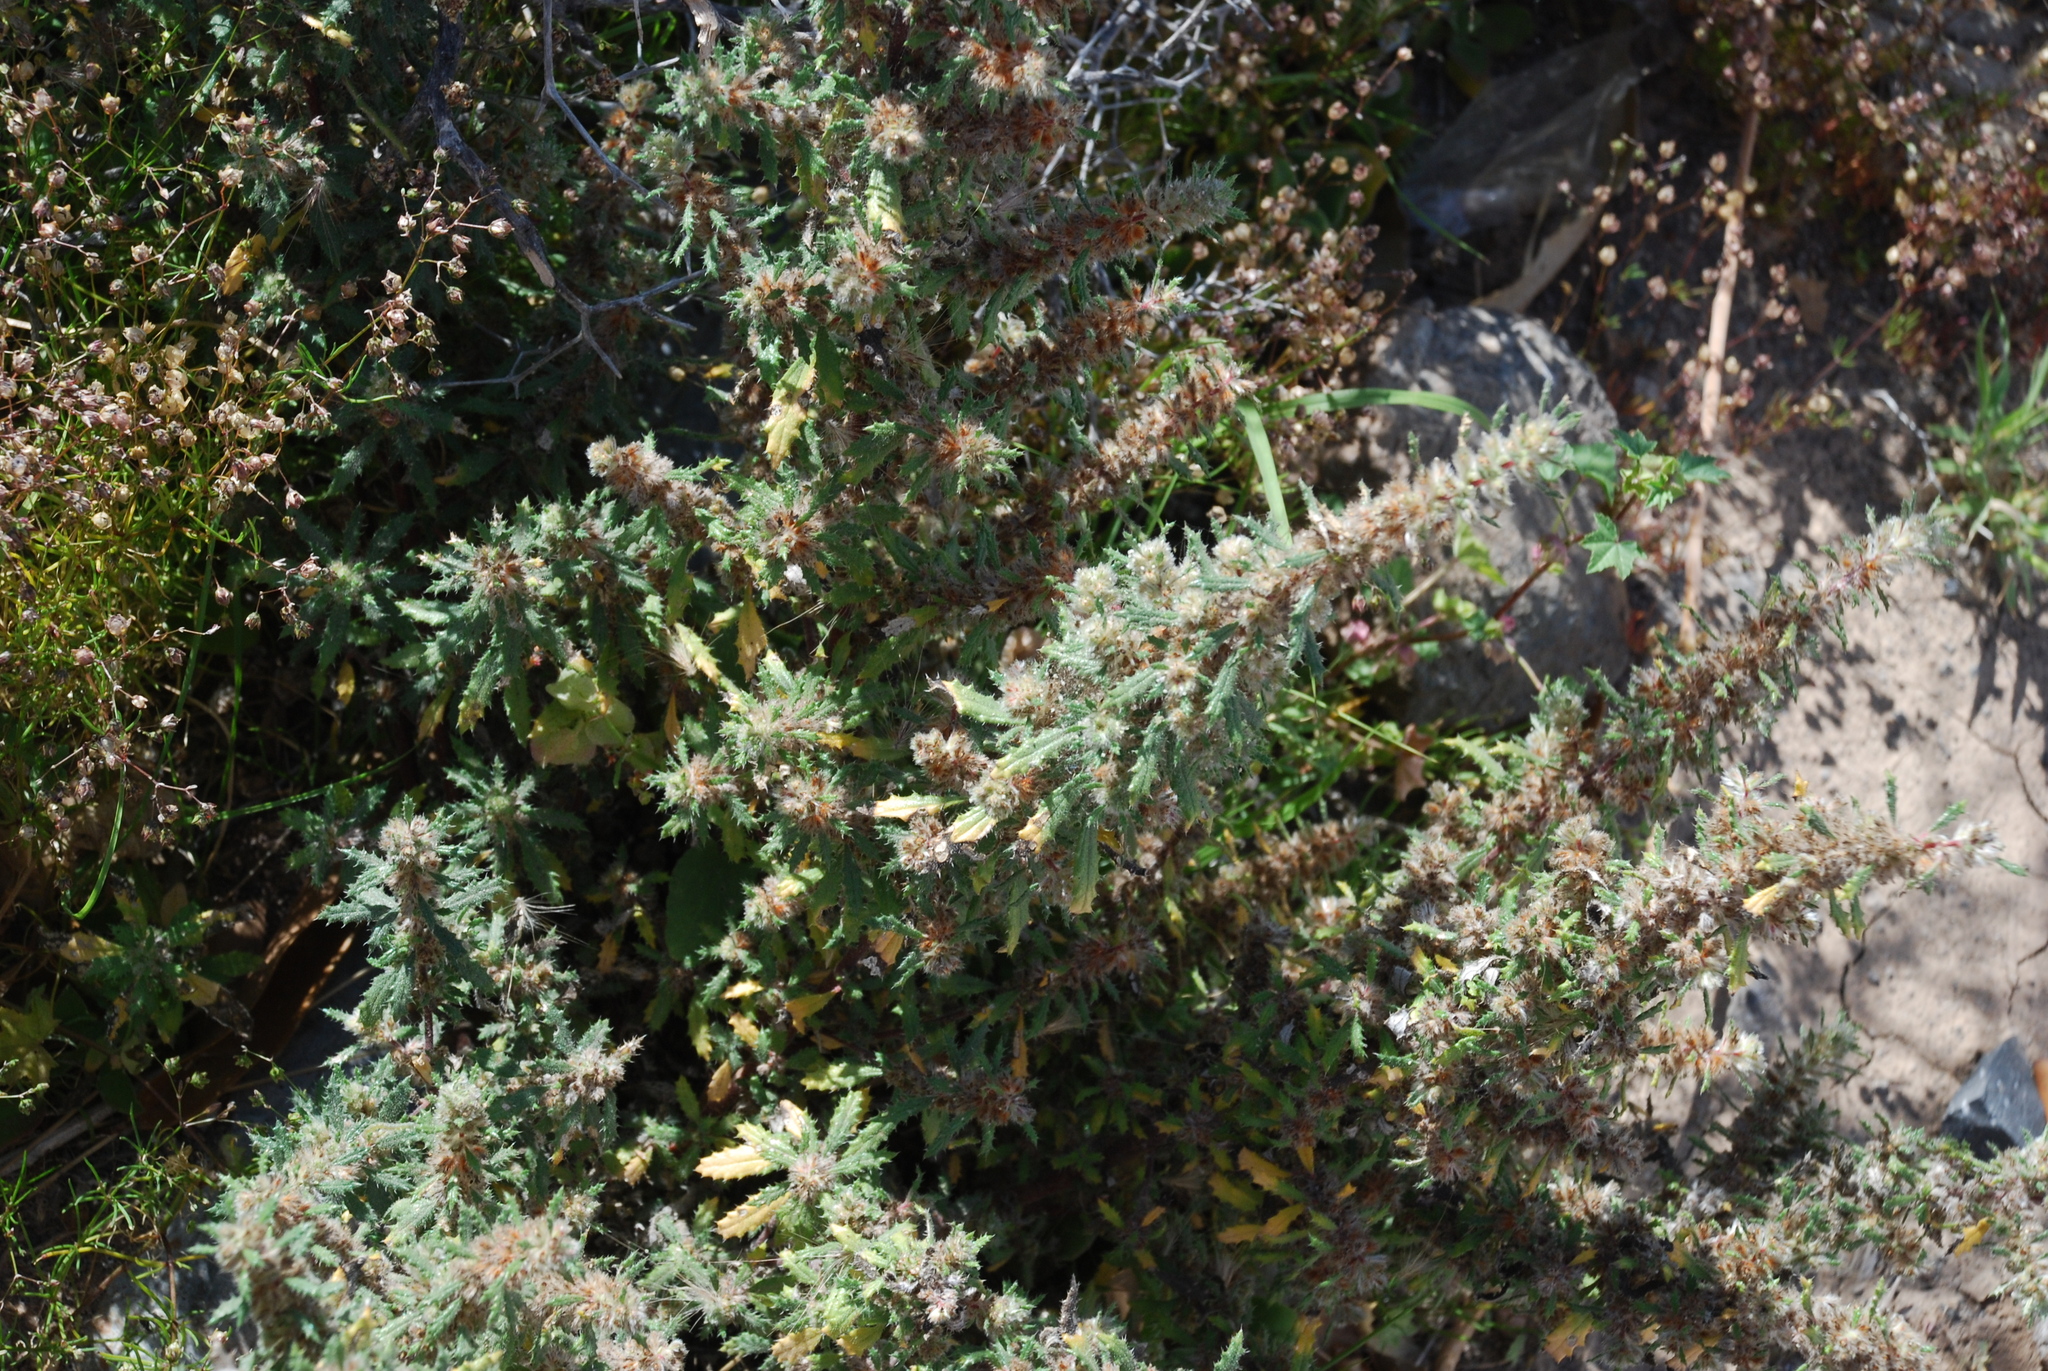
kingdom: Plantae
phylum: Tracheophyta
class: Magnoliopsida
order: Rosales
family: Urticaceae
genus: Forsskaolea
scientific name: Forsskaolea angustifolia
